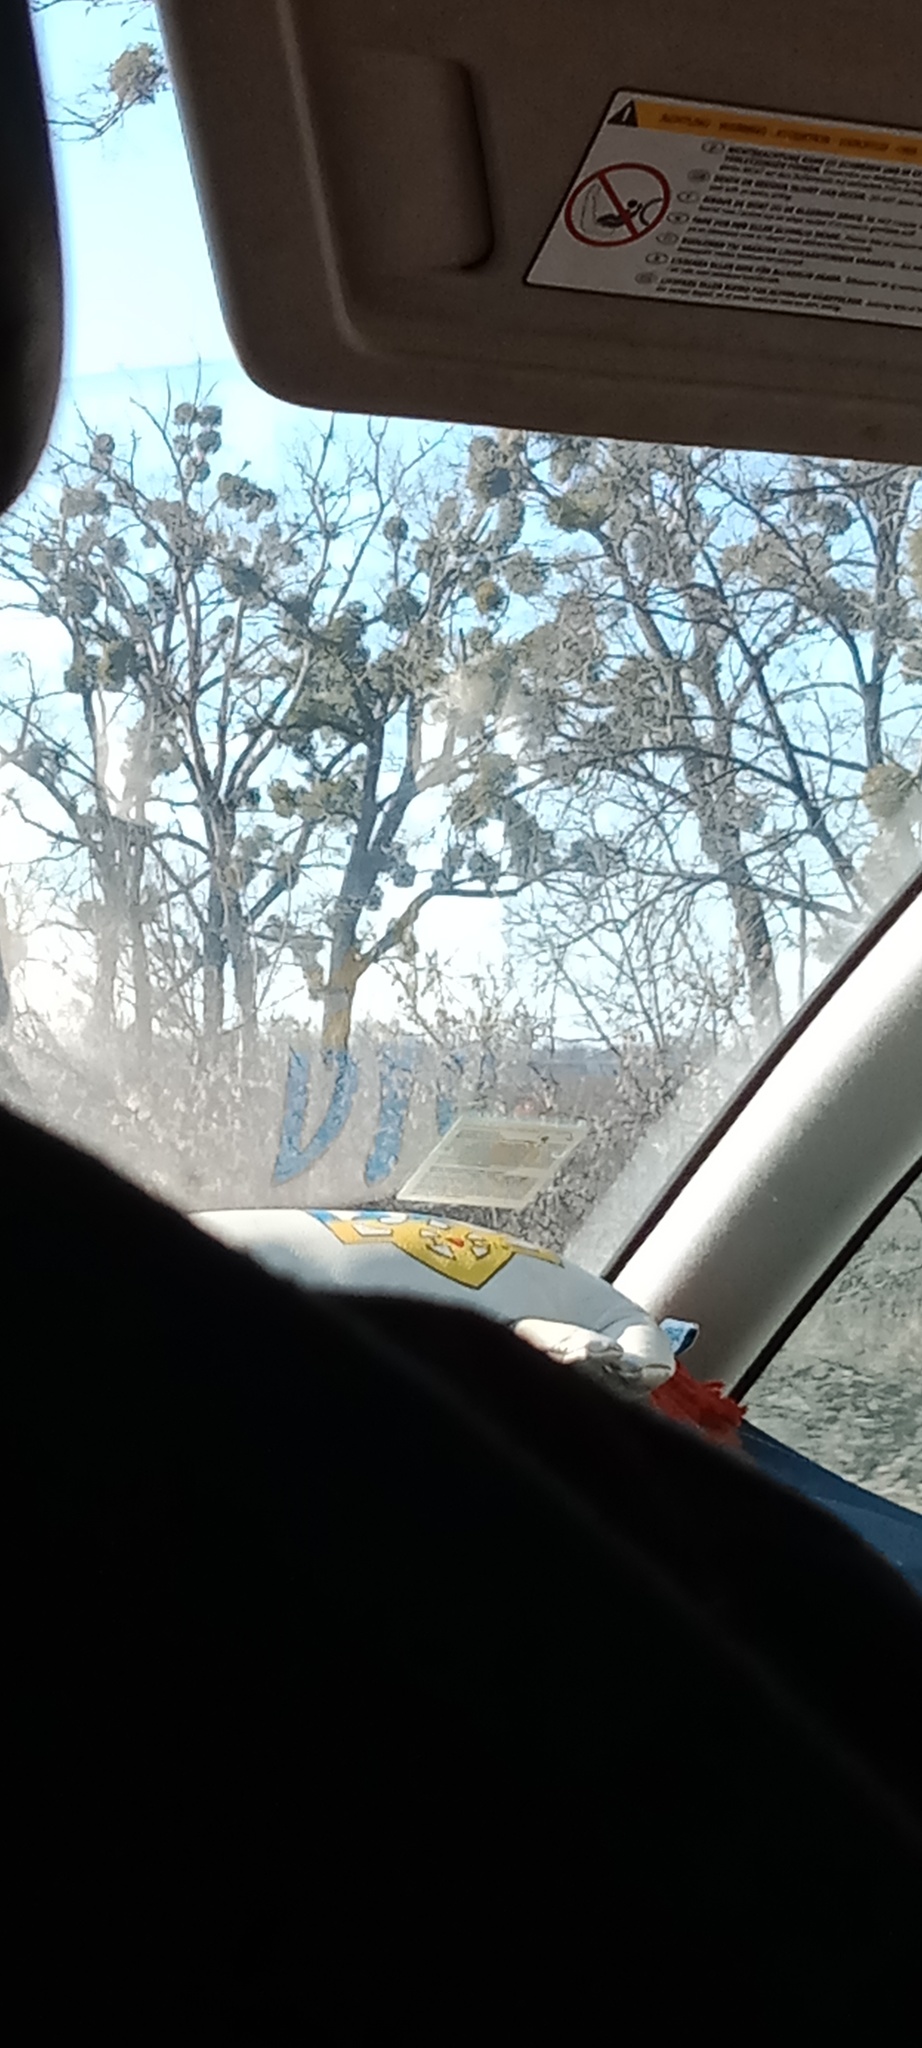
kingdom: Plantae
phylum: Tracheophyta
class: Magnoliopsida
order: Santalales
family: Viscaceae
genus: Viscum
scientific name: Viscum album
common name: Mistletoe
